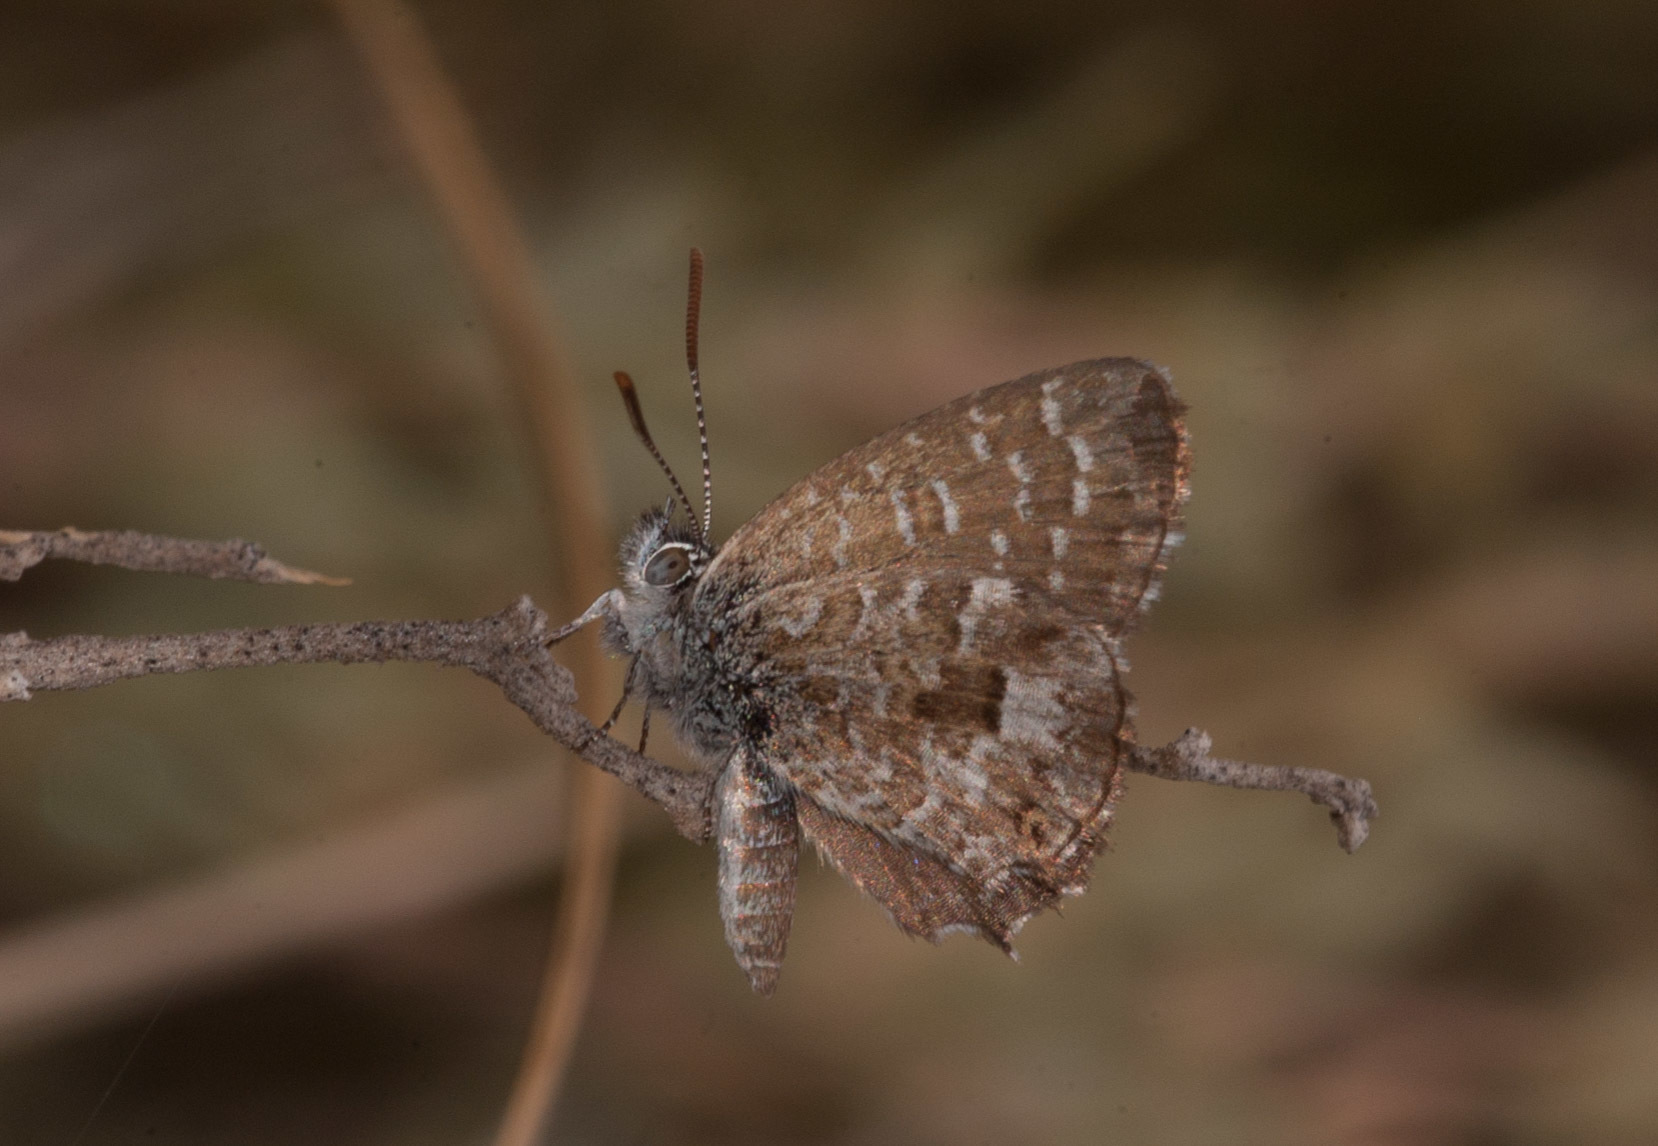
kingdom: Animalia
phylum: Arthropoda
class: Insecta
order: Lepidoptera
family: Lycaenidae
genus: Theclinesthes
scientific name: Theclinesthes serpentata
